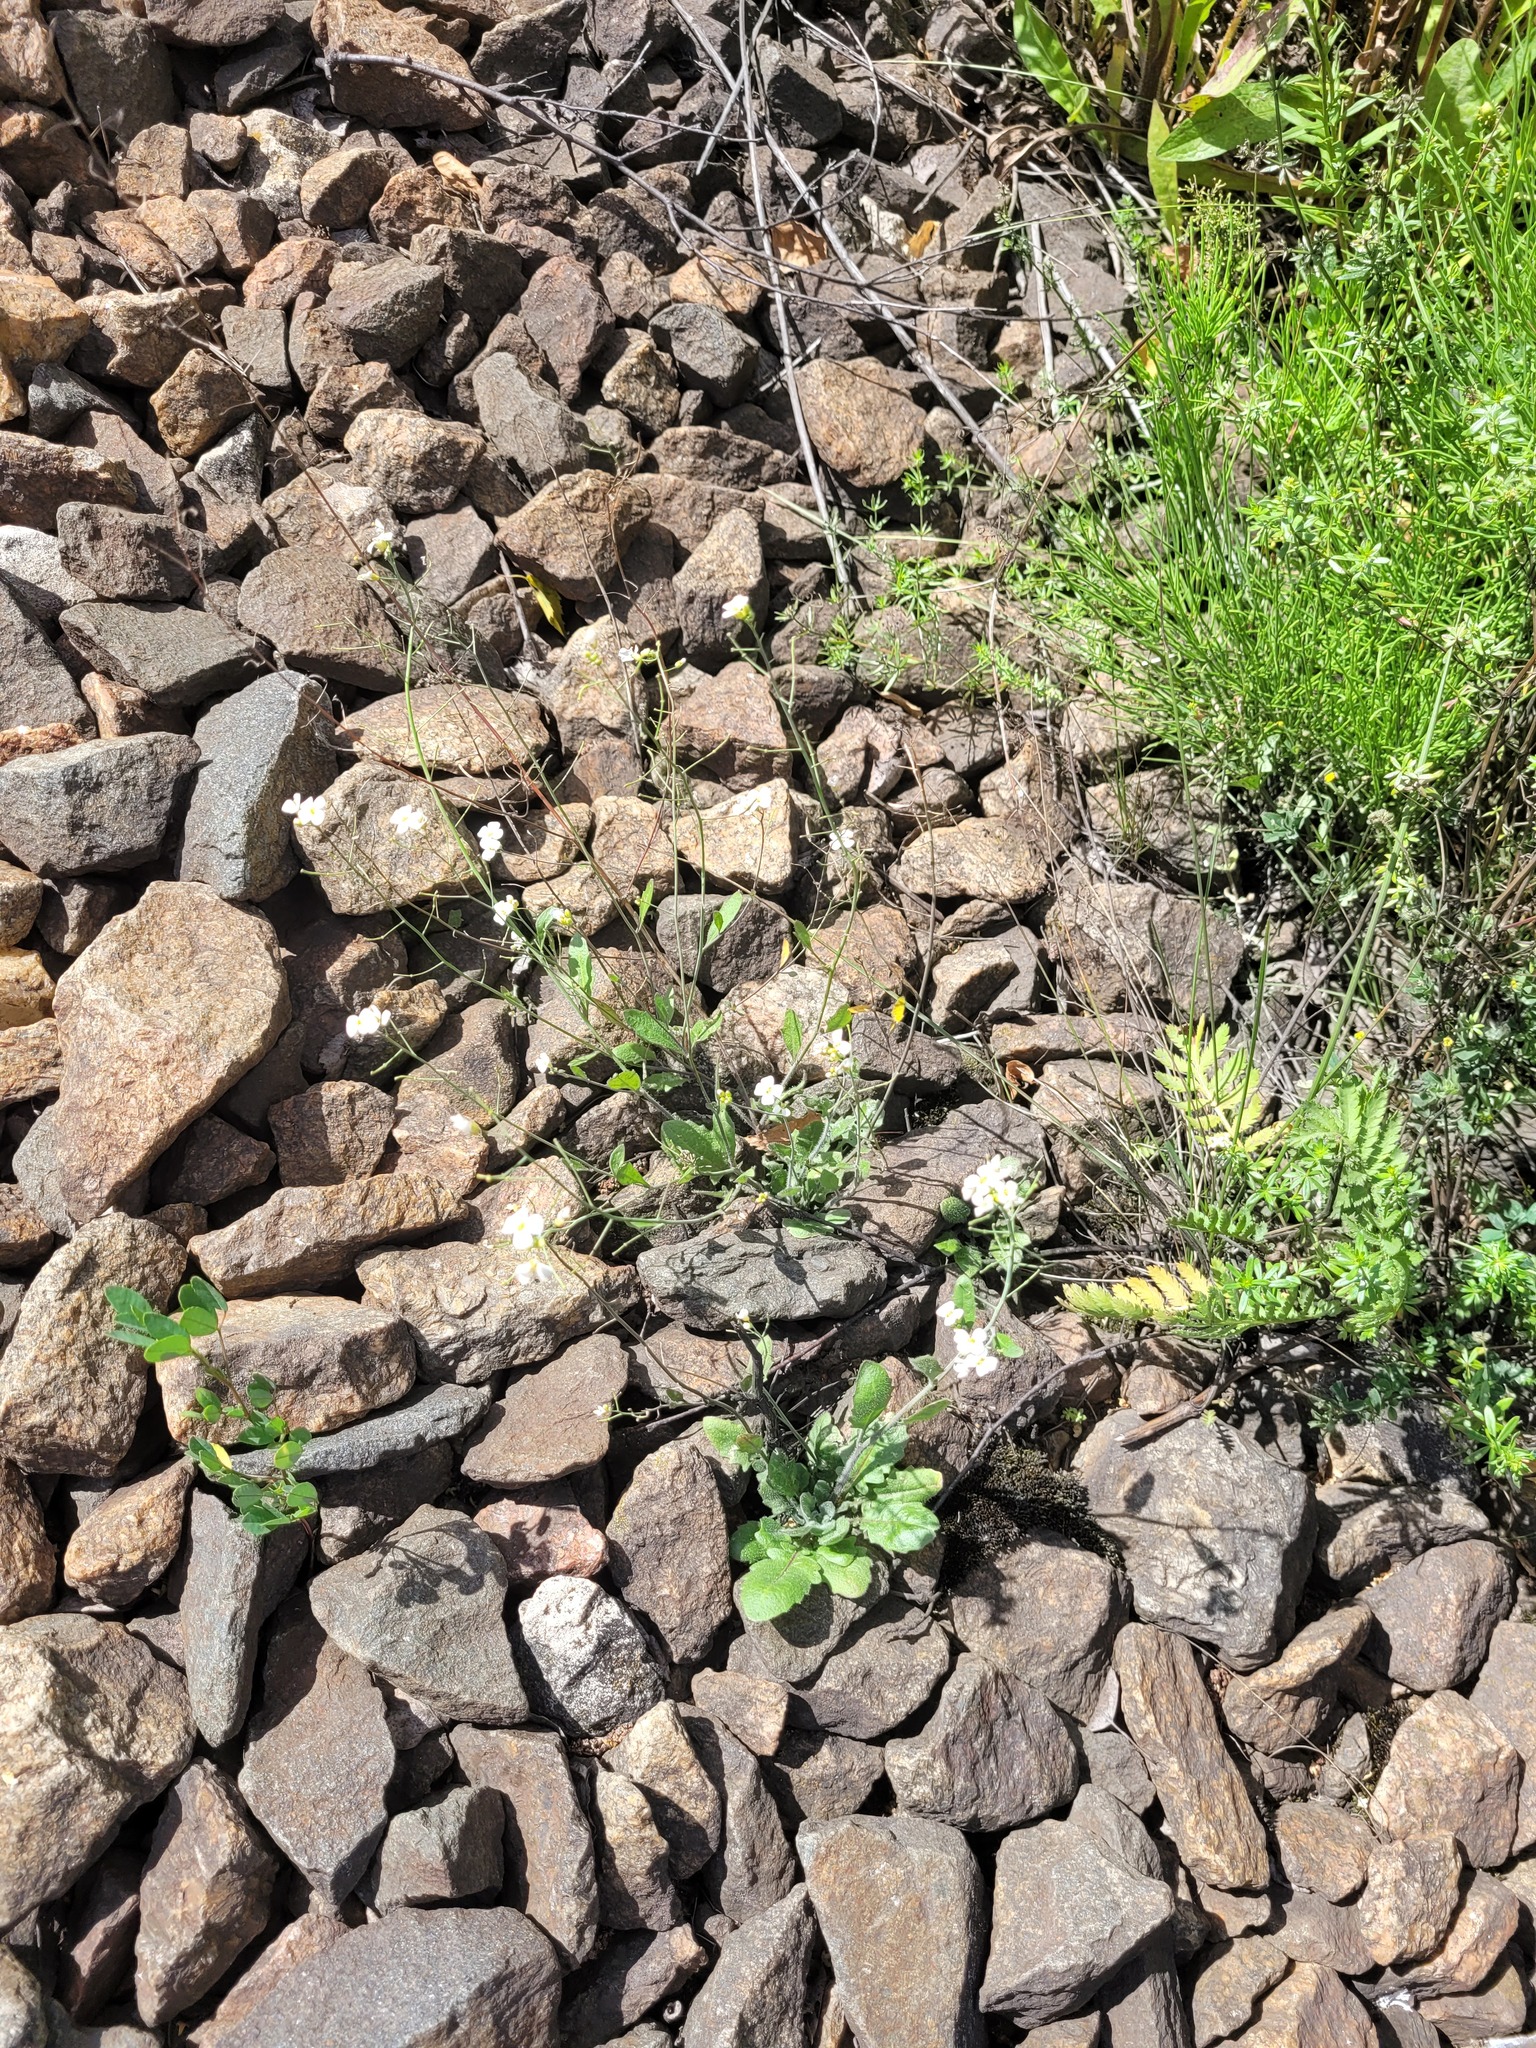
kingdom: Plantae
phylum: Tracheophyta
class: Magnoliopsida
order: Brassicales
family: Brassicaceae
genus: Arabidopsis
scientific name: Arabidopsis arenosa
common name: Sand rock-cress
